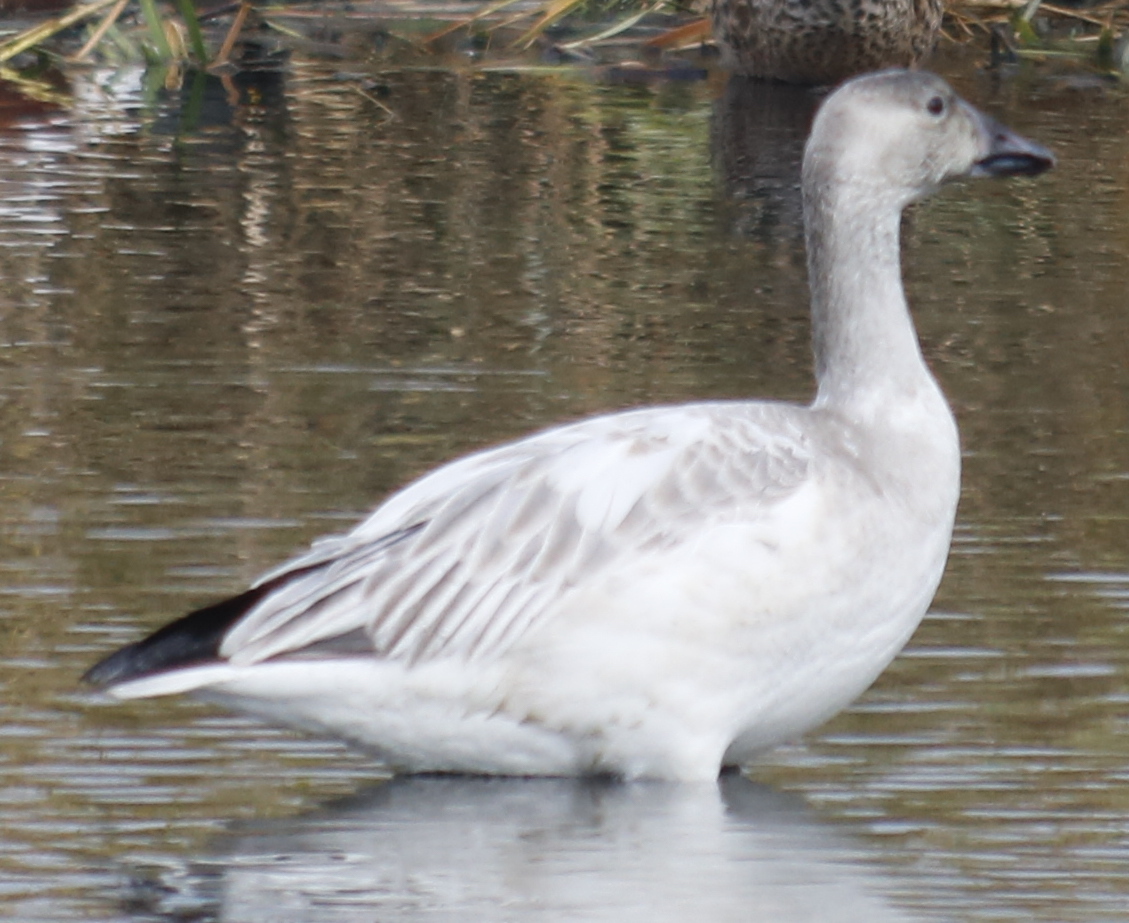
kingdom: Animalia
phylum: Chordata
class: Aves
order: Anseriformes
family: Anatidae
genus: Anser
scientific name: Anser caerulescens
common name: Snow goose
